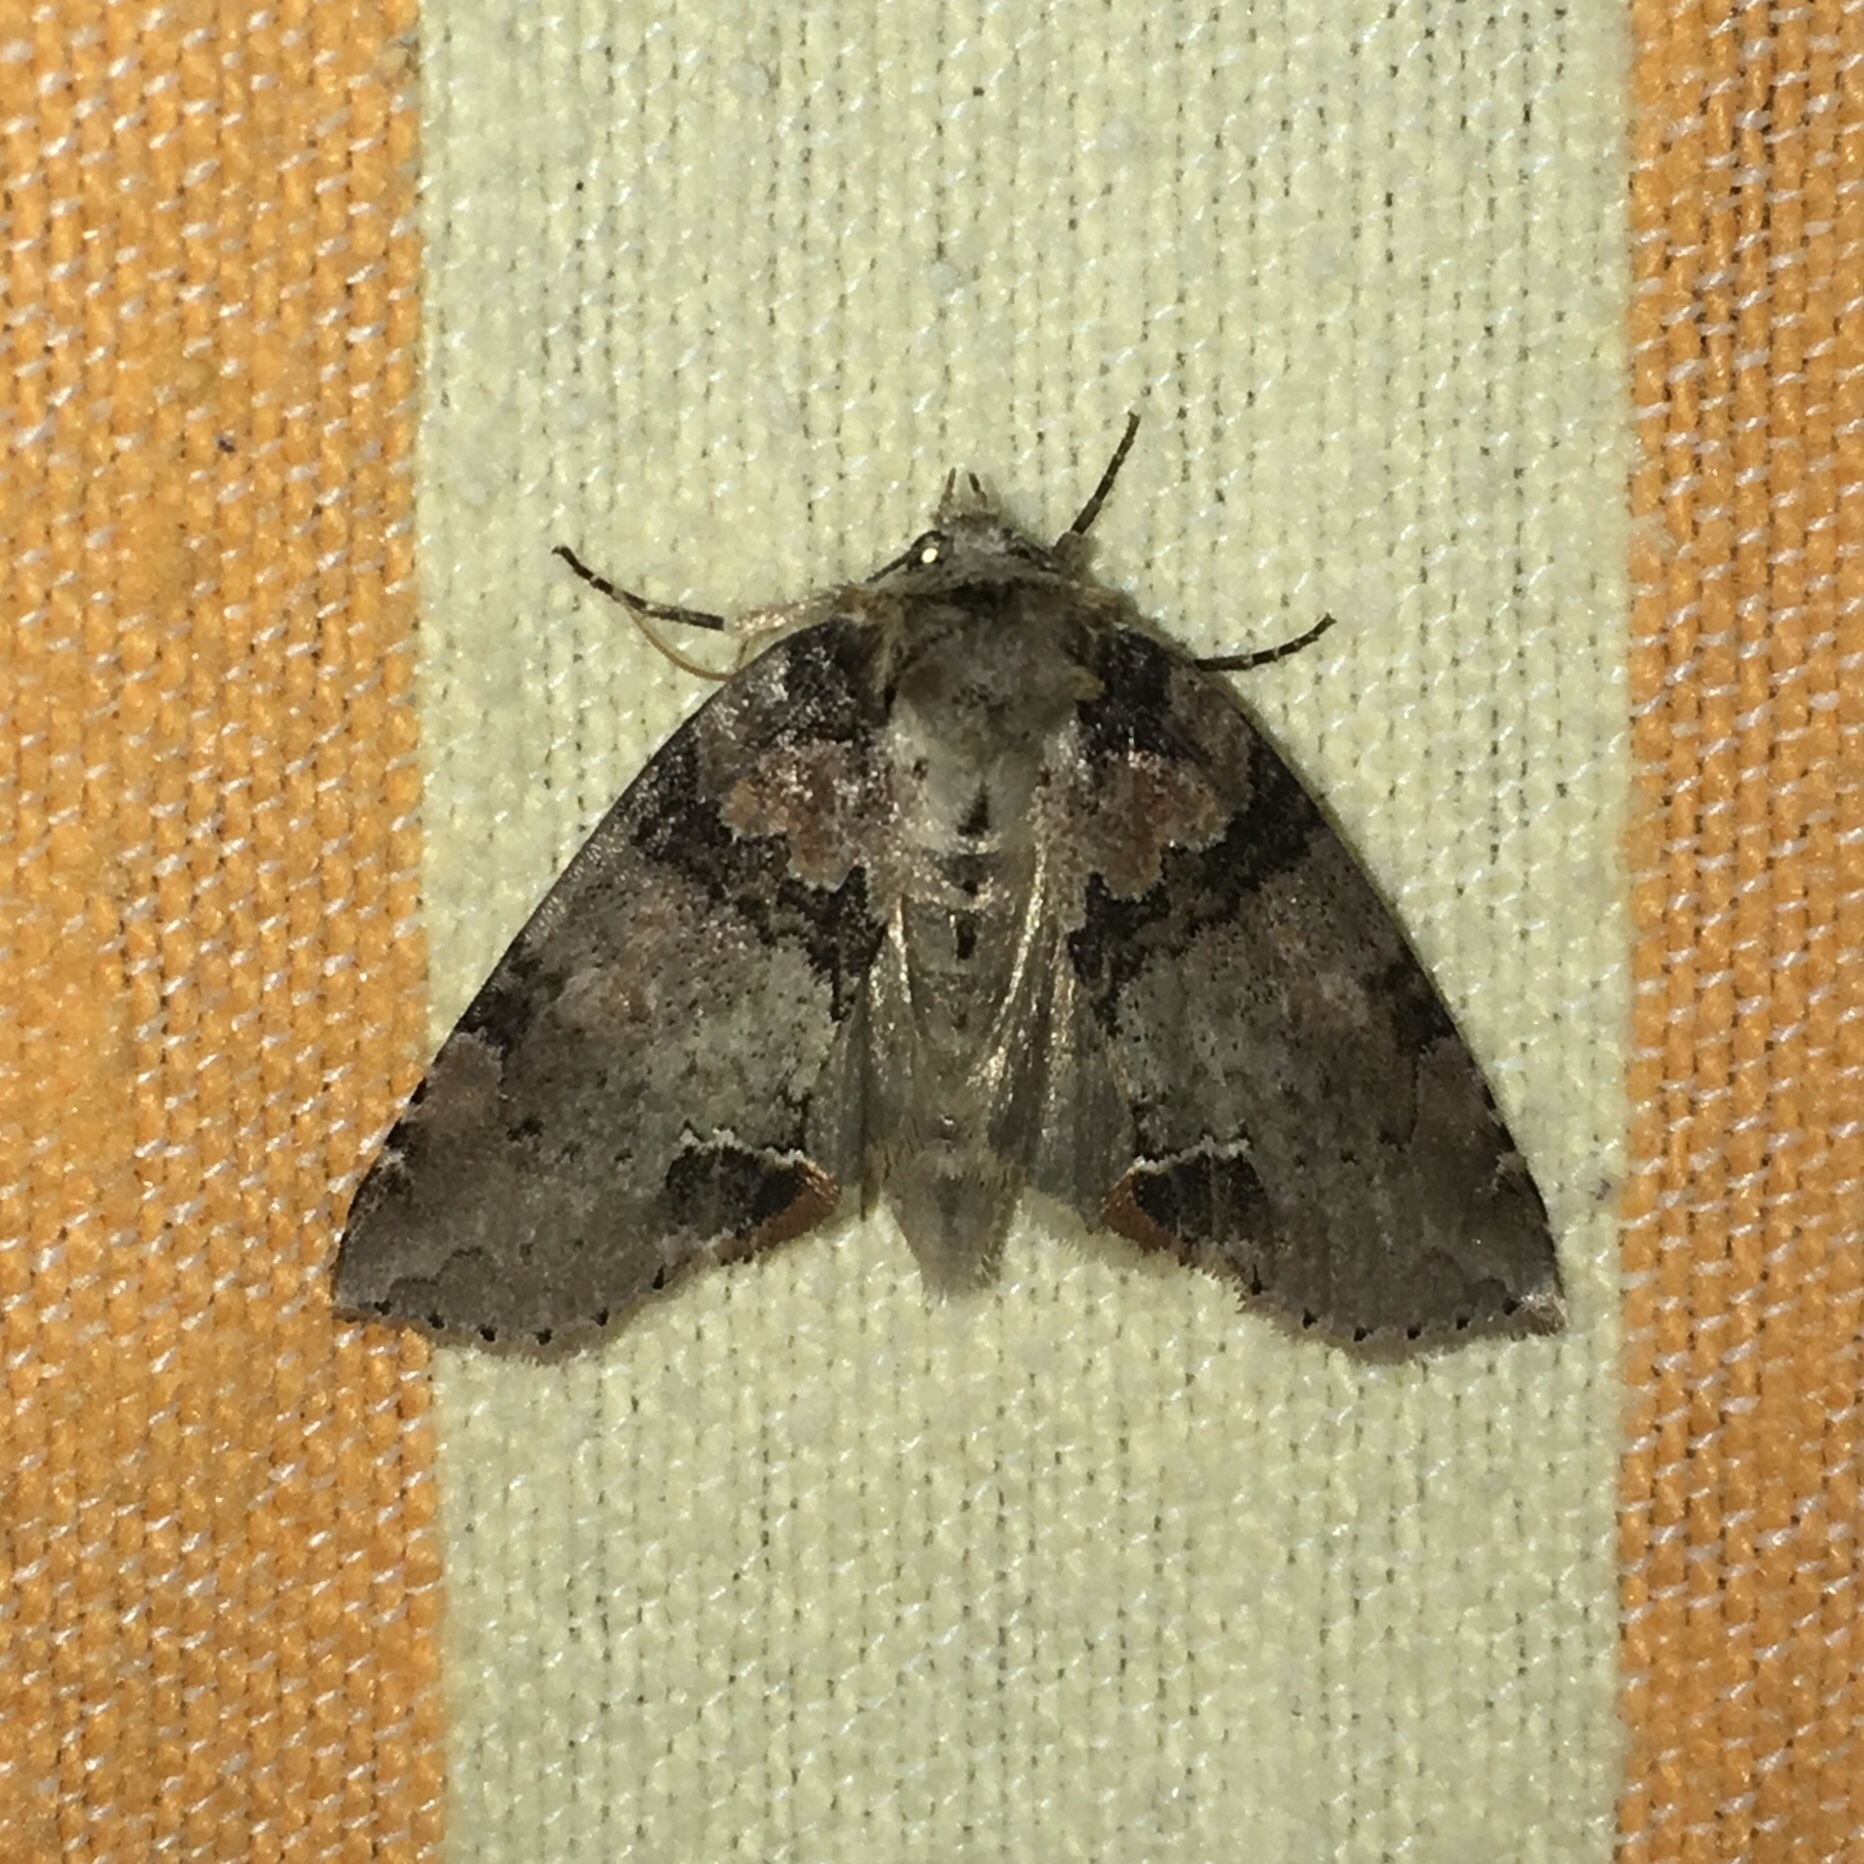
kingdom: Animalia
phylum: Arthropoda
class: Insecta
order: Lepidoptera
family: Drepanidae
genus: Pseudothyatira
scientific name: Pseudothyatira cymatophoroides
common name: Tufted thyatirid moth
